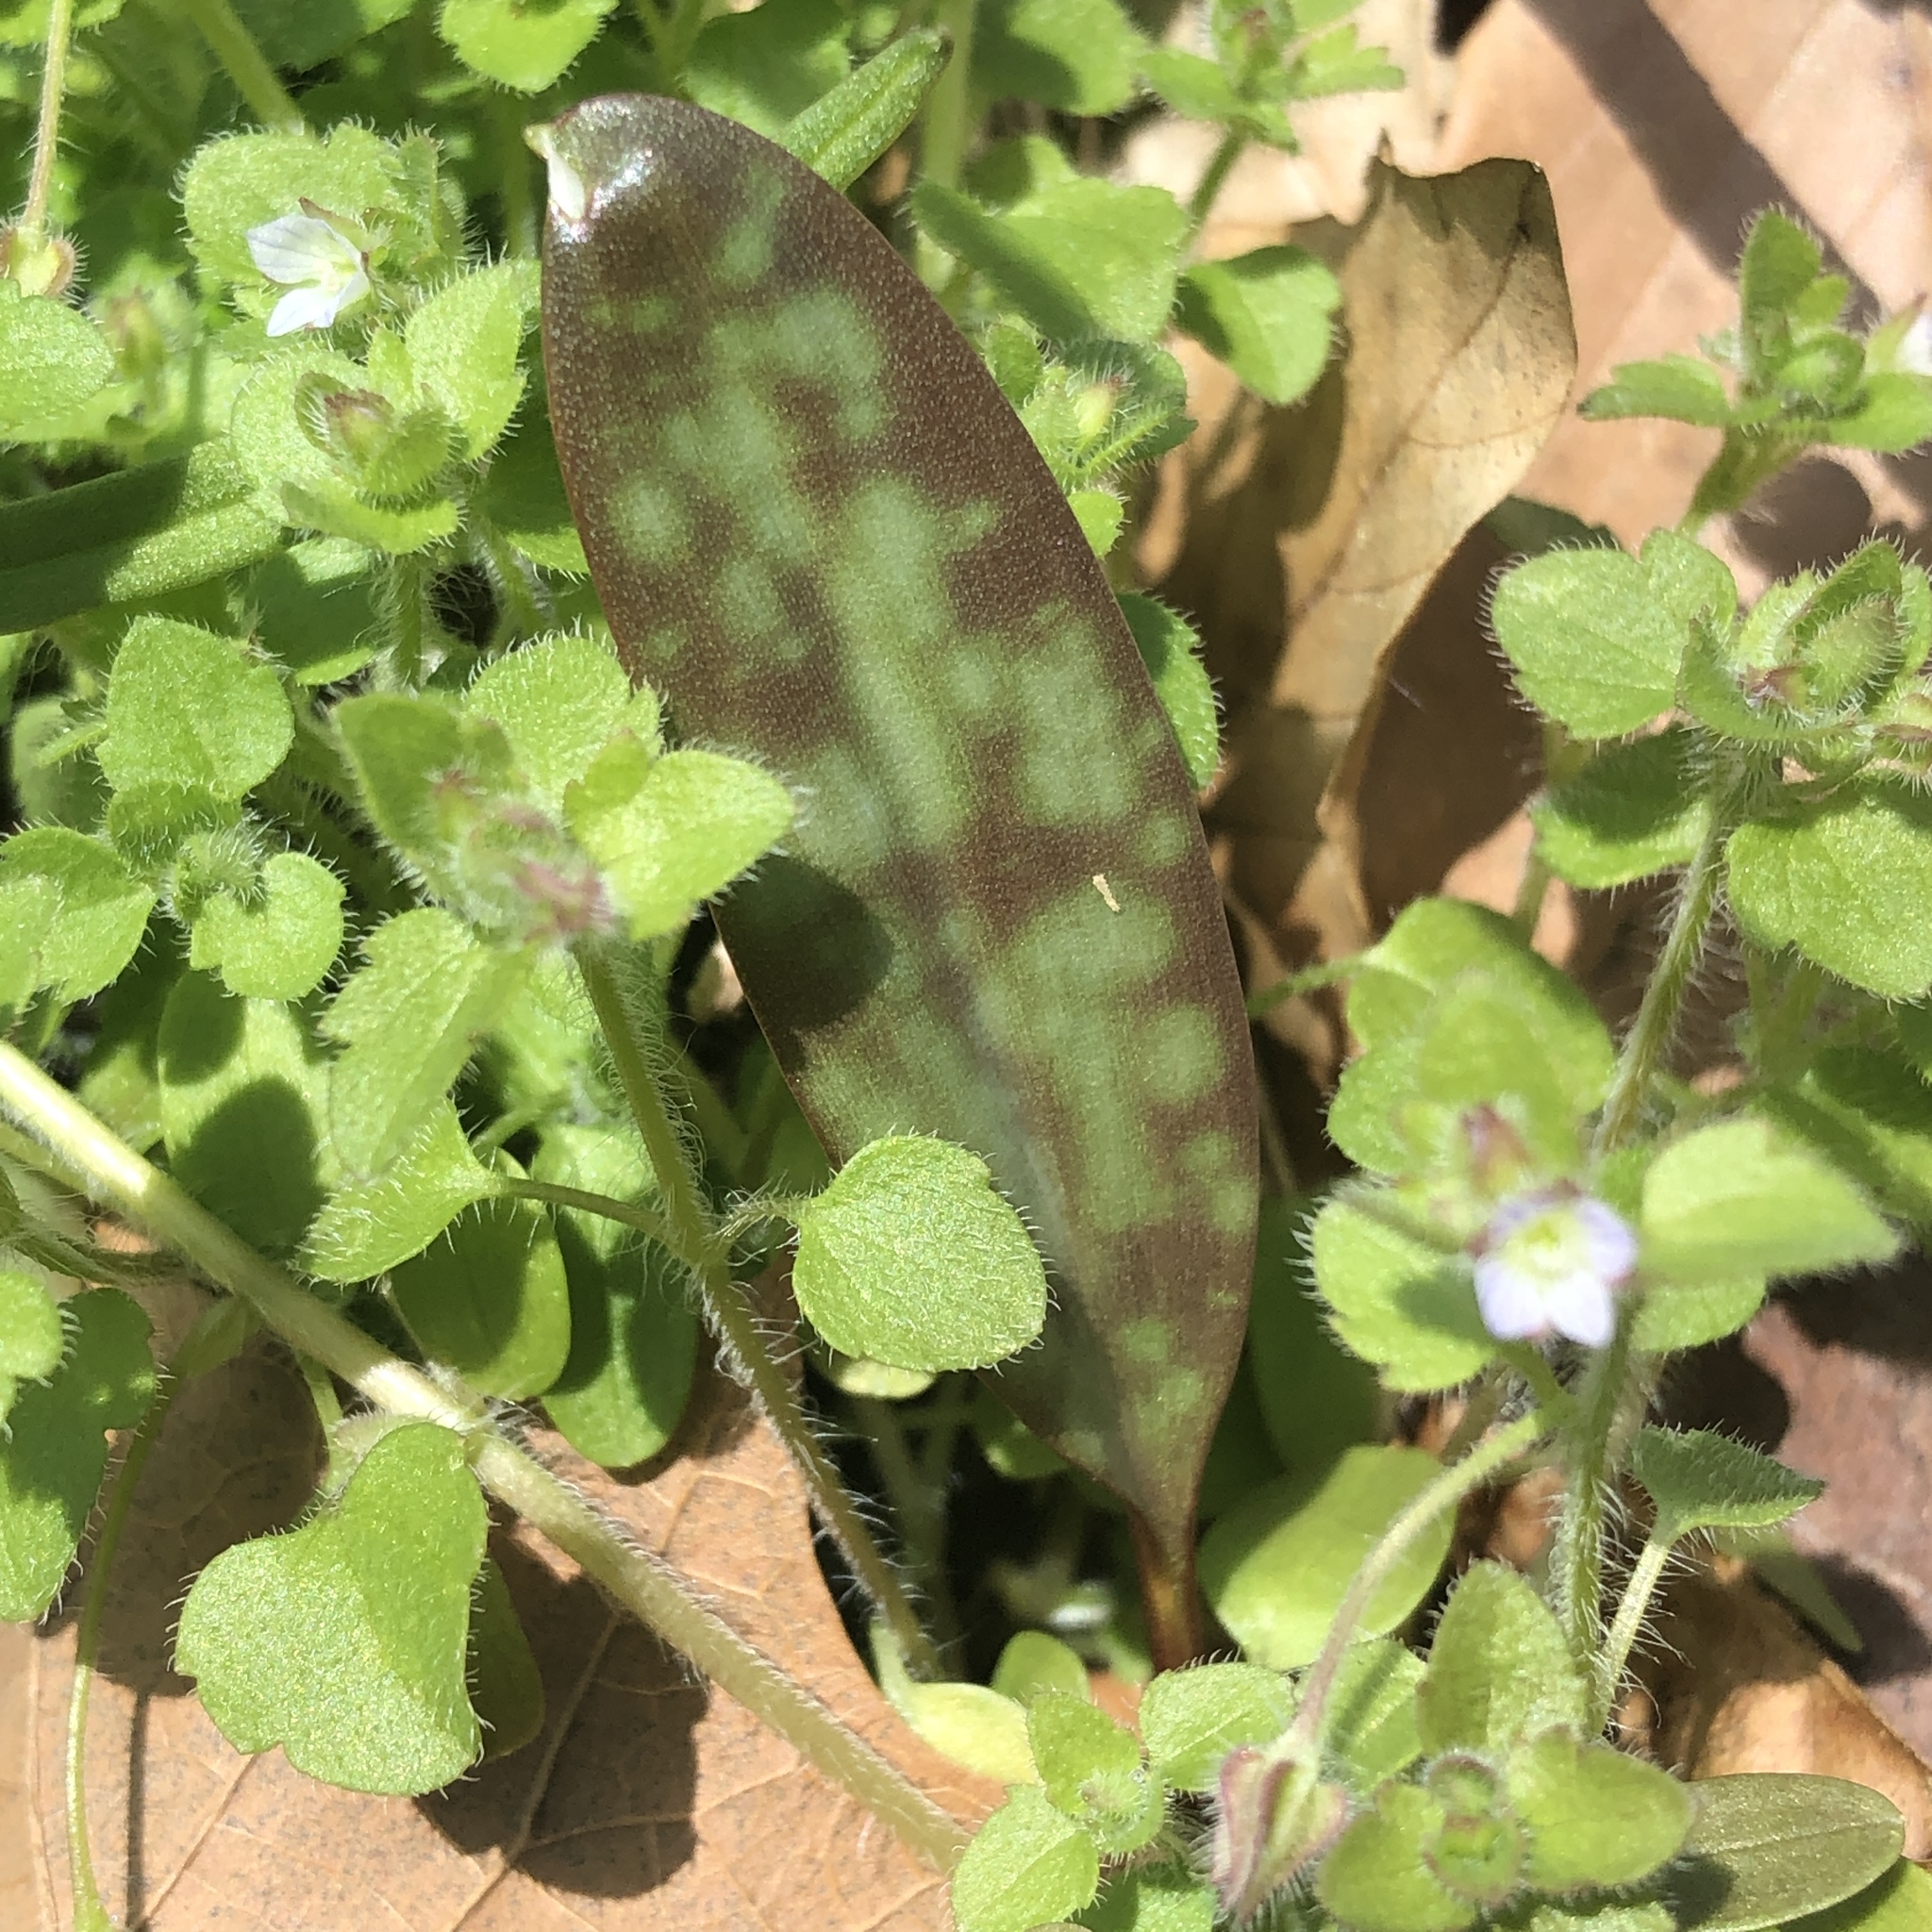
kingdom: Plantae
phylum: Tracheophyta
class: Liliopsida
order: Liliales
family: Liliaceae
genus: Erythronium
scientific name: Erythronium americanum
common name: Yellow adder's-tongue
